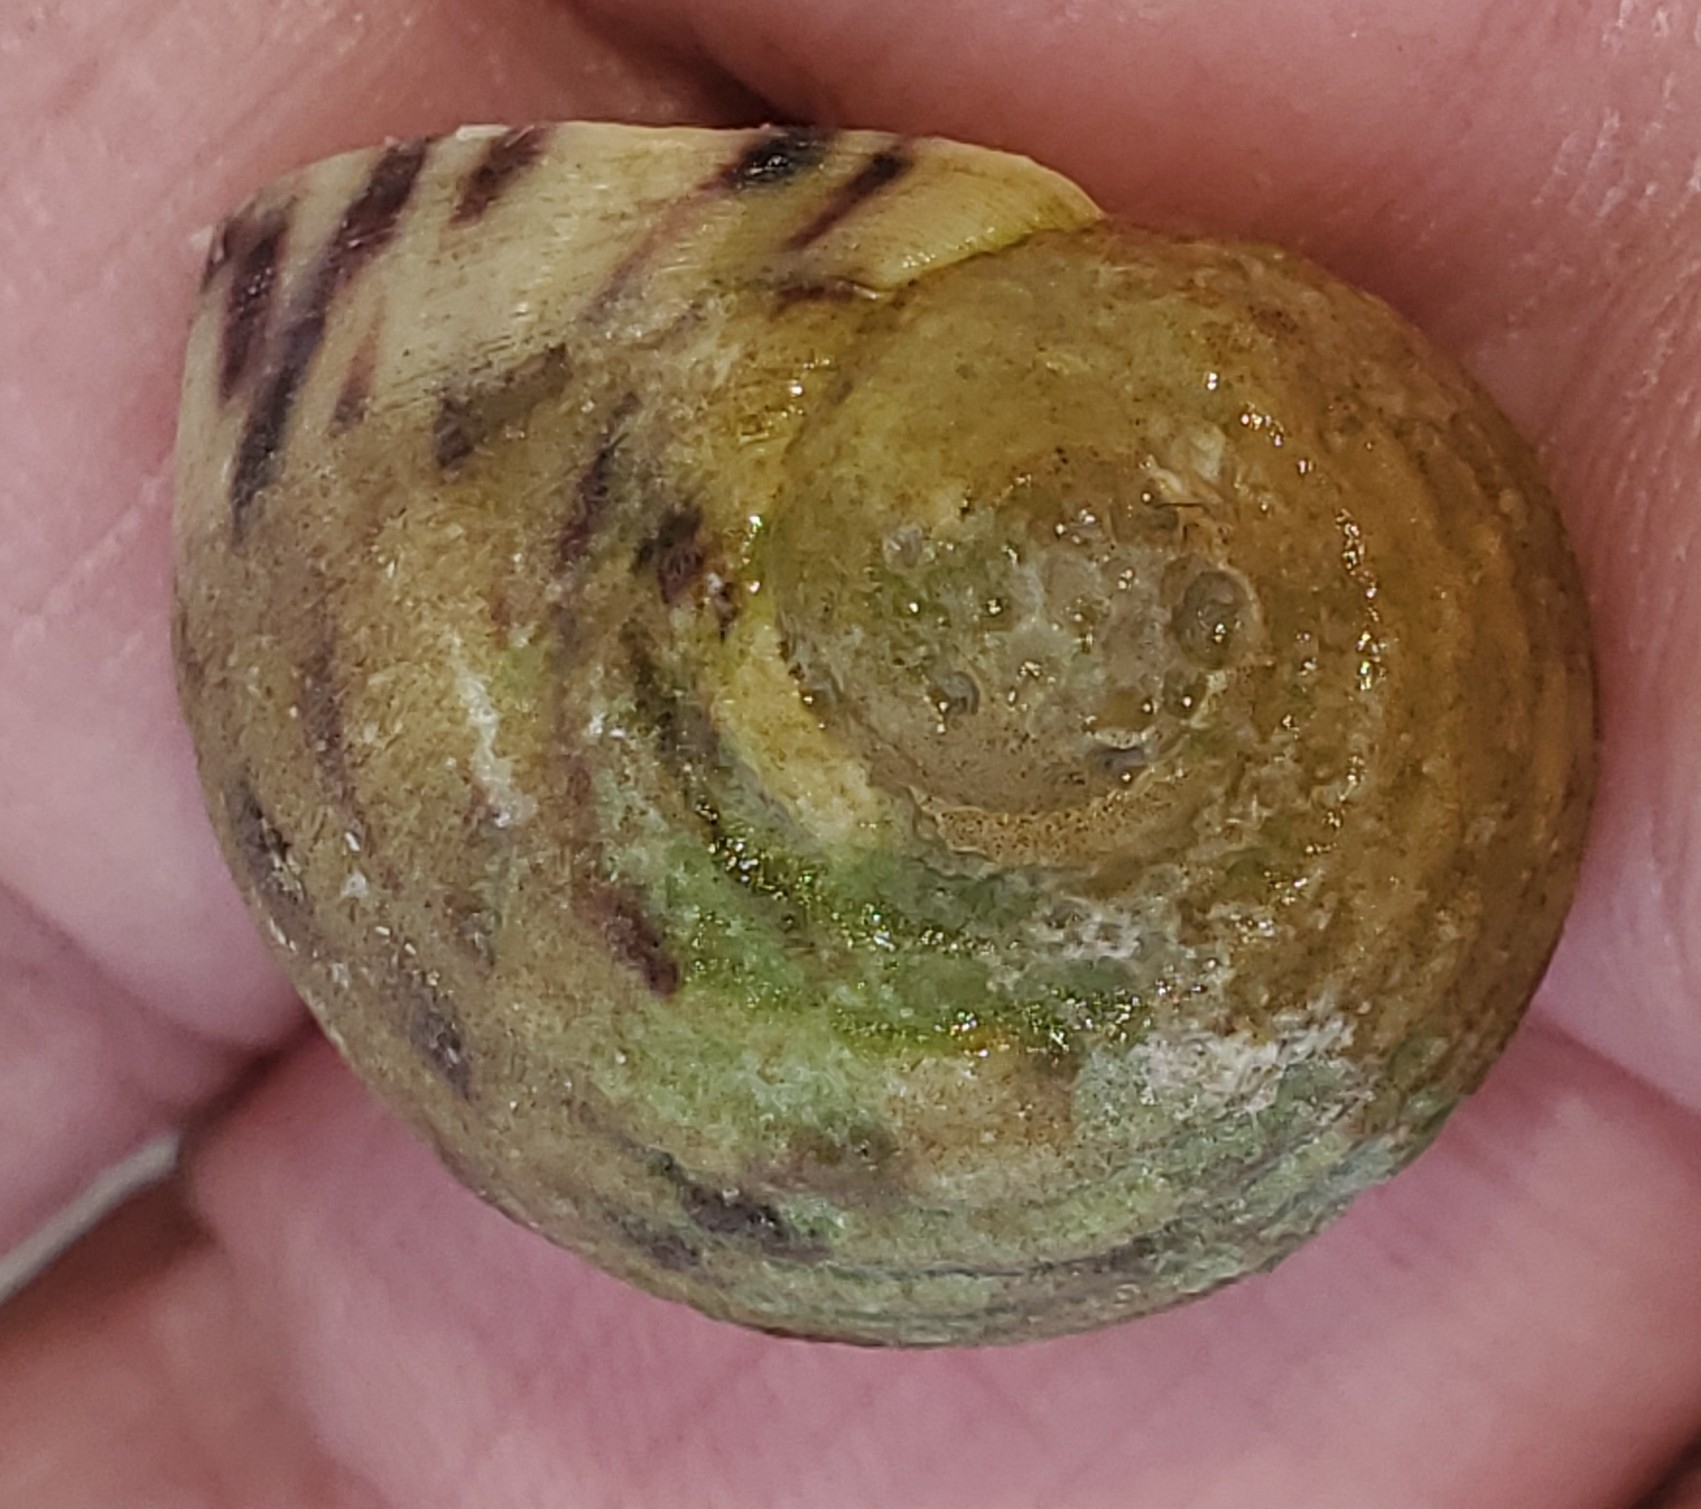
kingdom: Animalia
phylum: Mollusca
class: Gastropoda
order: Cycloneritida
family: Neritidae
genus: Nerita
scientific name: Nerita peloronta
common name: Bleeding tooth
